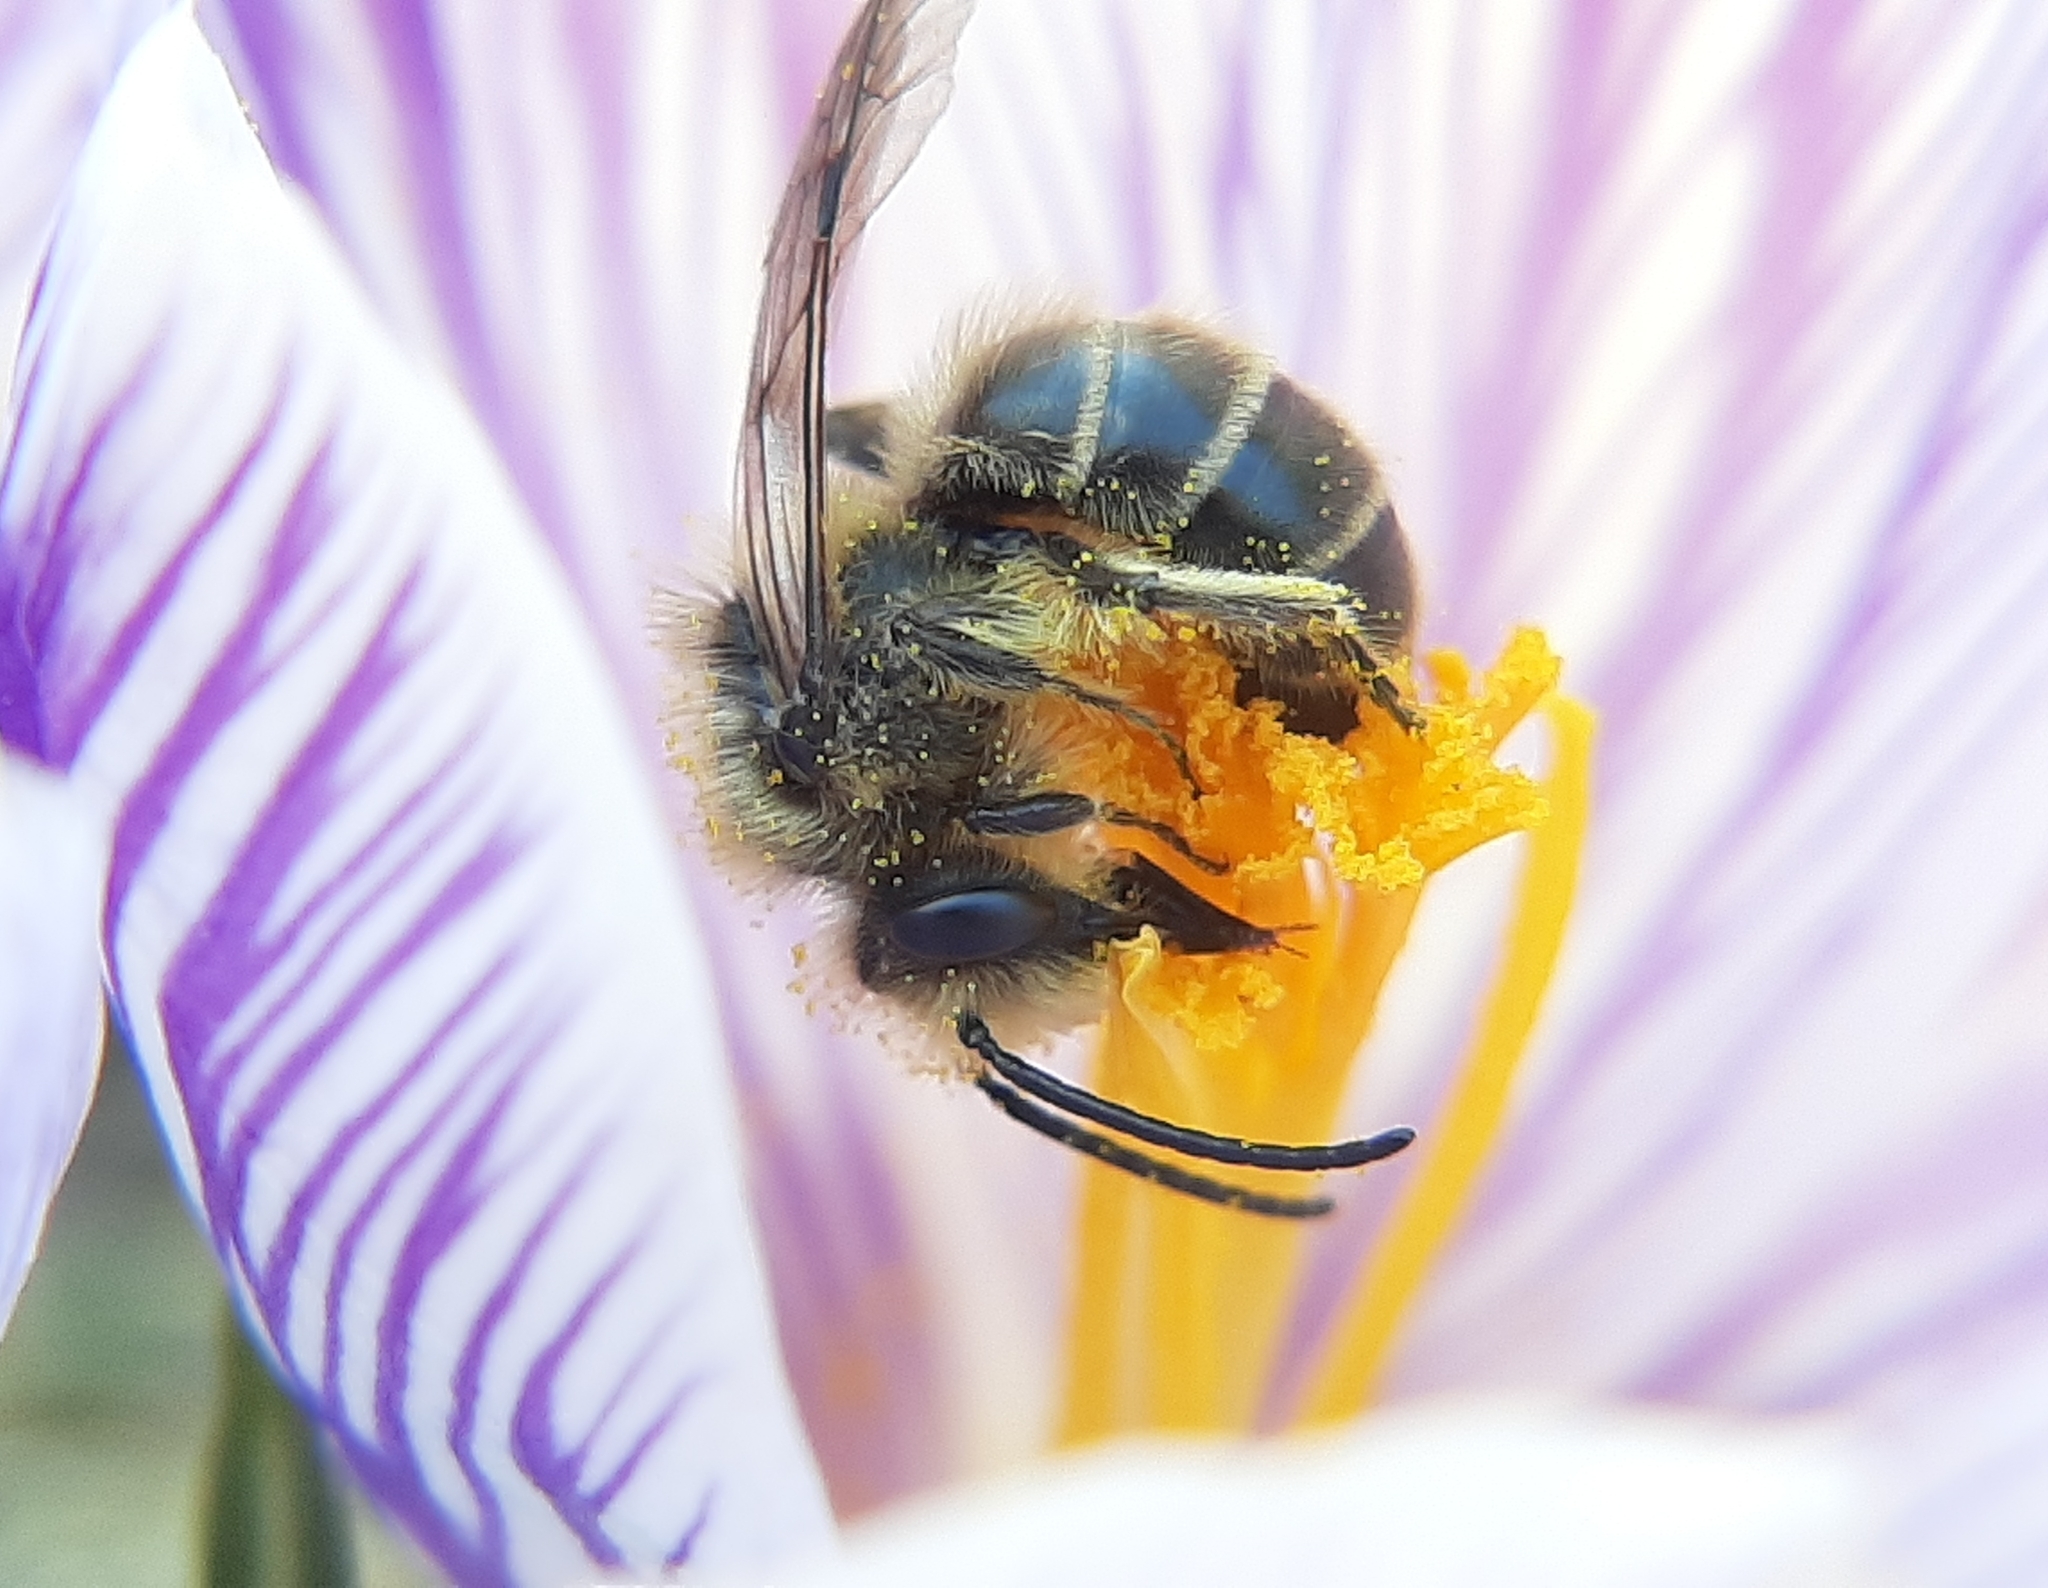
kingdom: Animalia
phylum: Arthropoda
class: Insecta
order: Hymenoptera
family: Colletidae
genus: Colletes
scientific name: Colletes inaequalis
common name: Unequal cellophane bee
